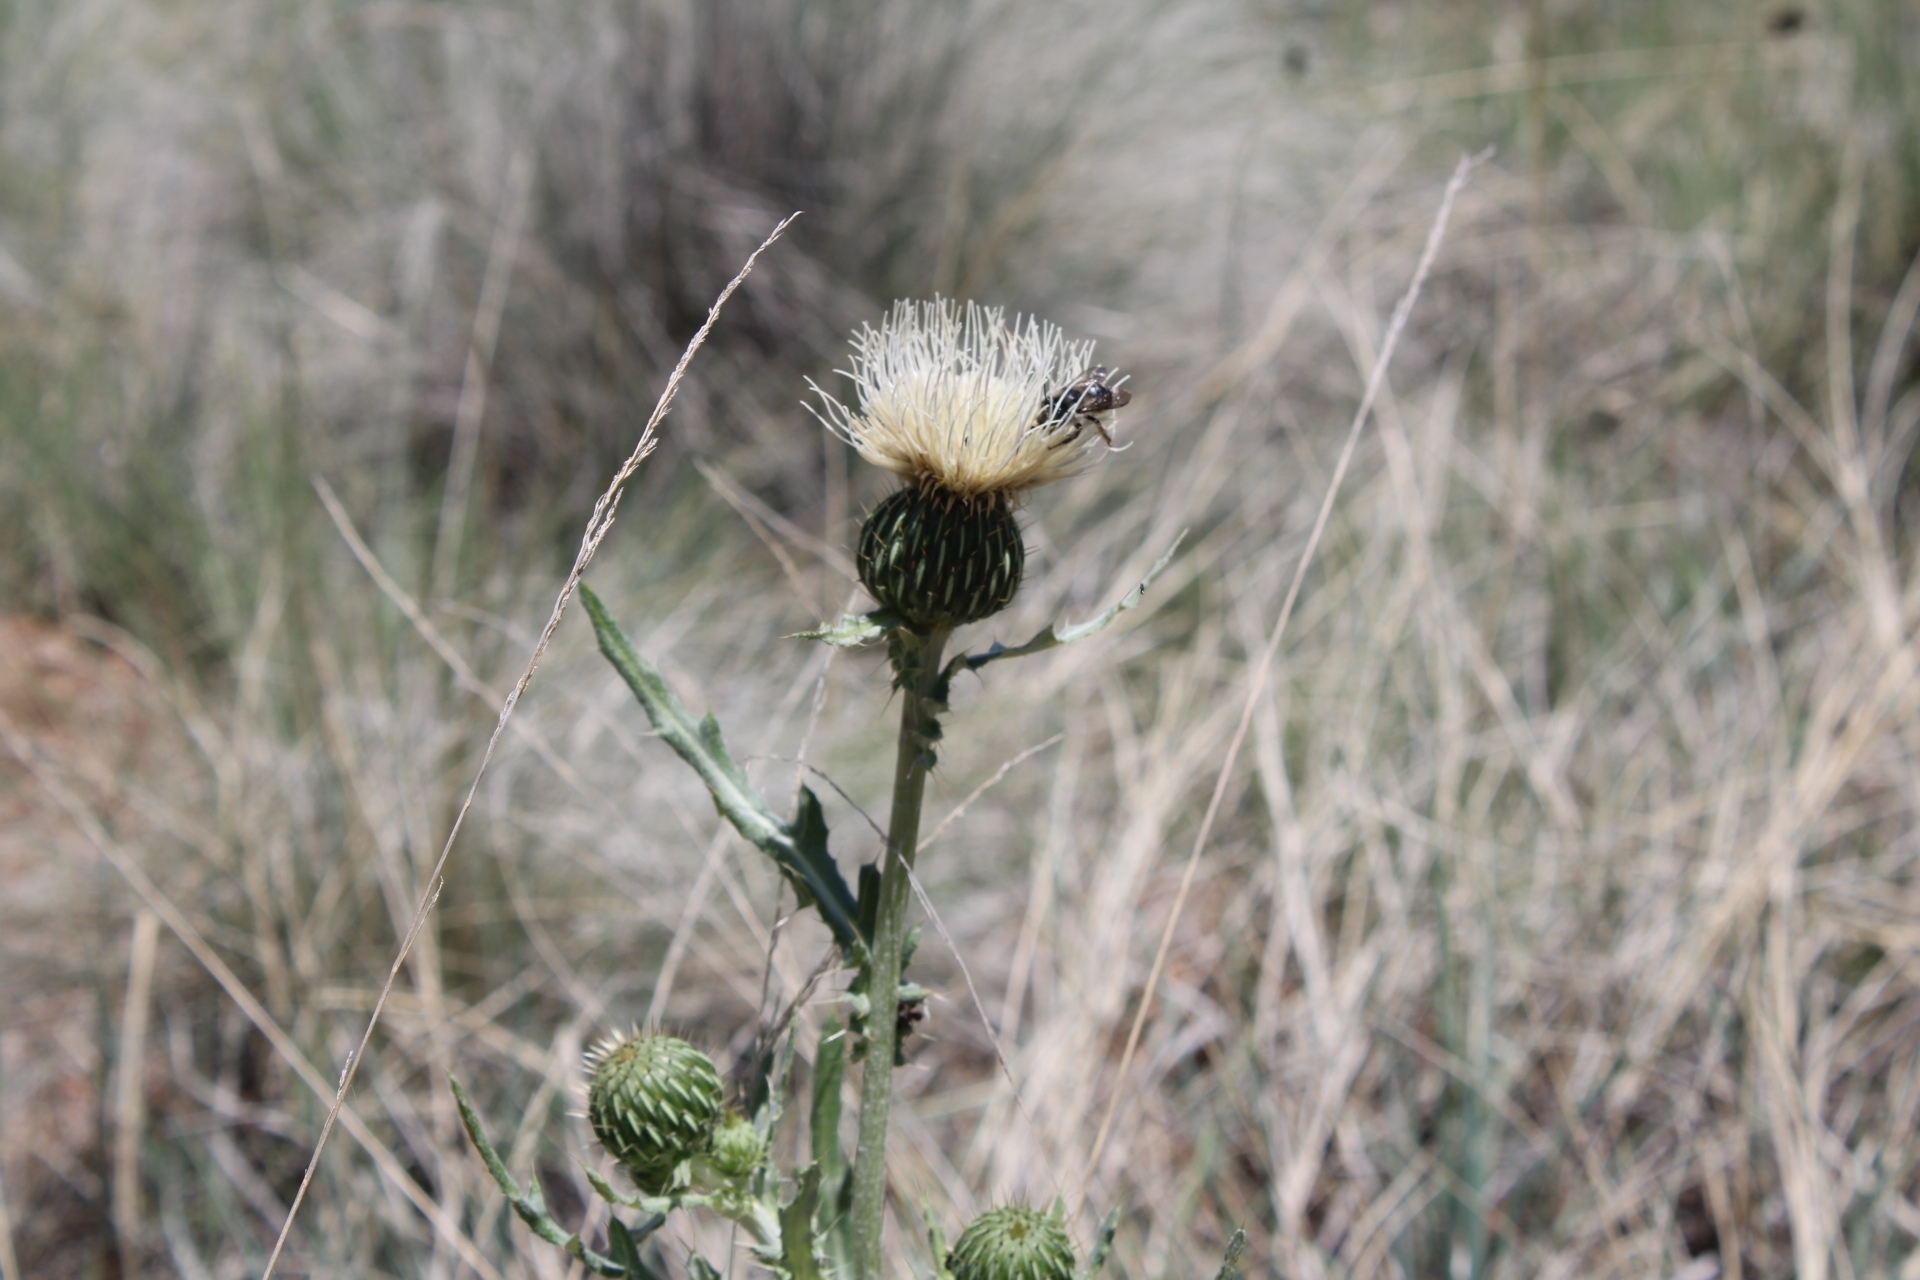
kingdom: Plantae
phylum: Tracheophyta
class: Magnoliopsida
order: Asterales
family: Asteraceae
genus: Cirsium
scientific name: Cirsium canescens
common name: Prairie thistle
